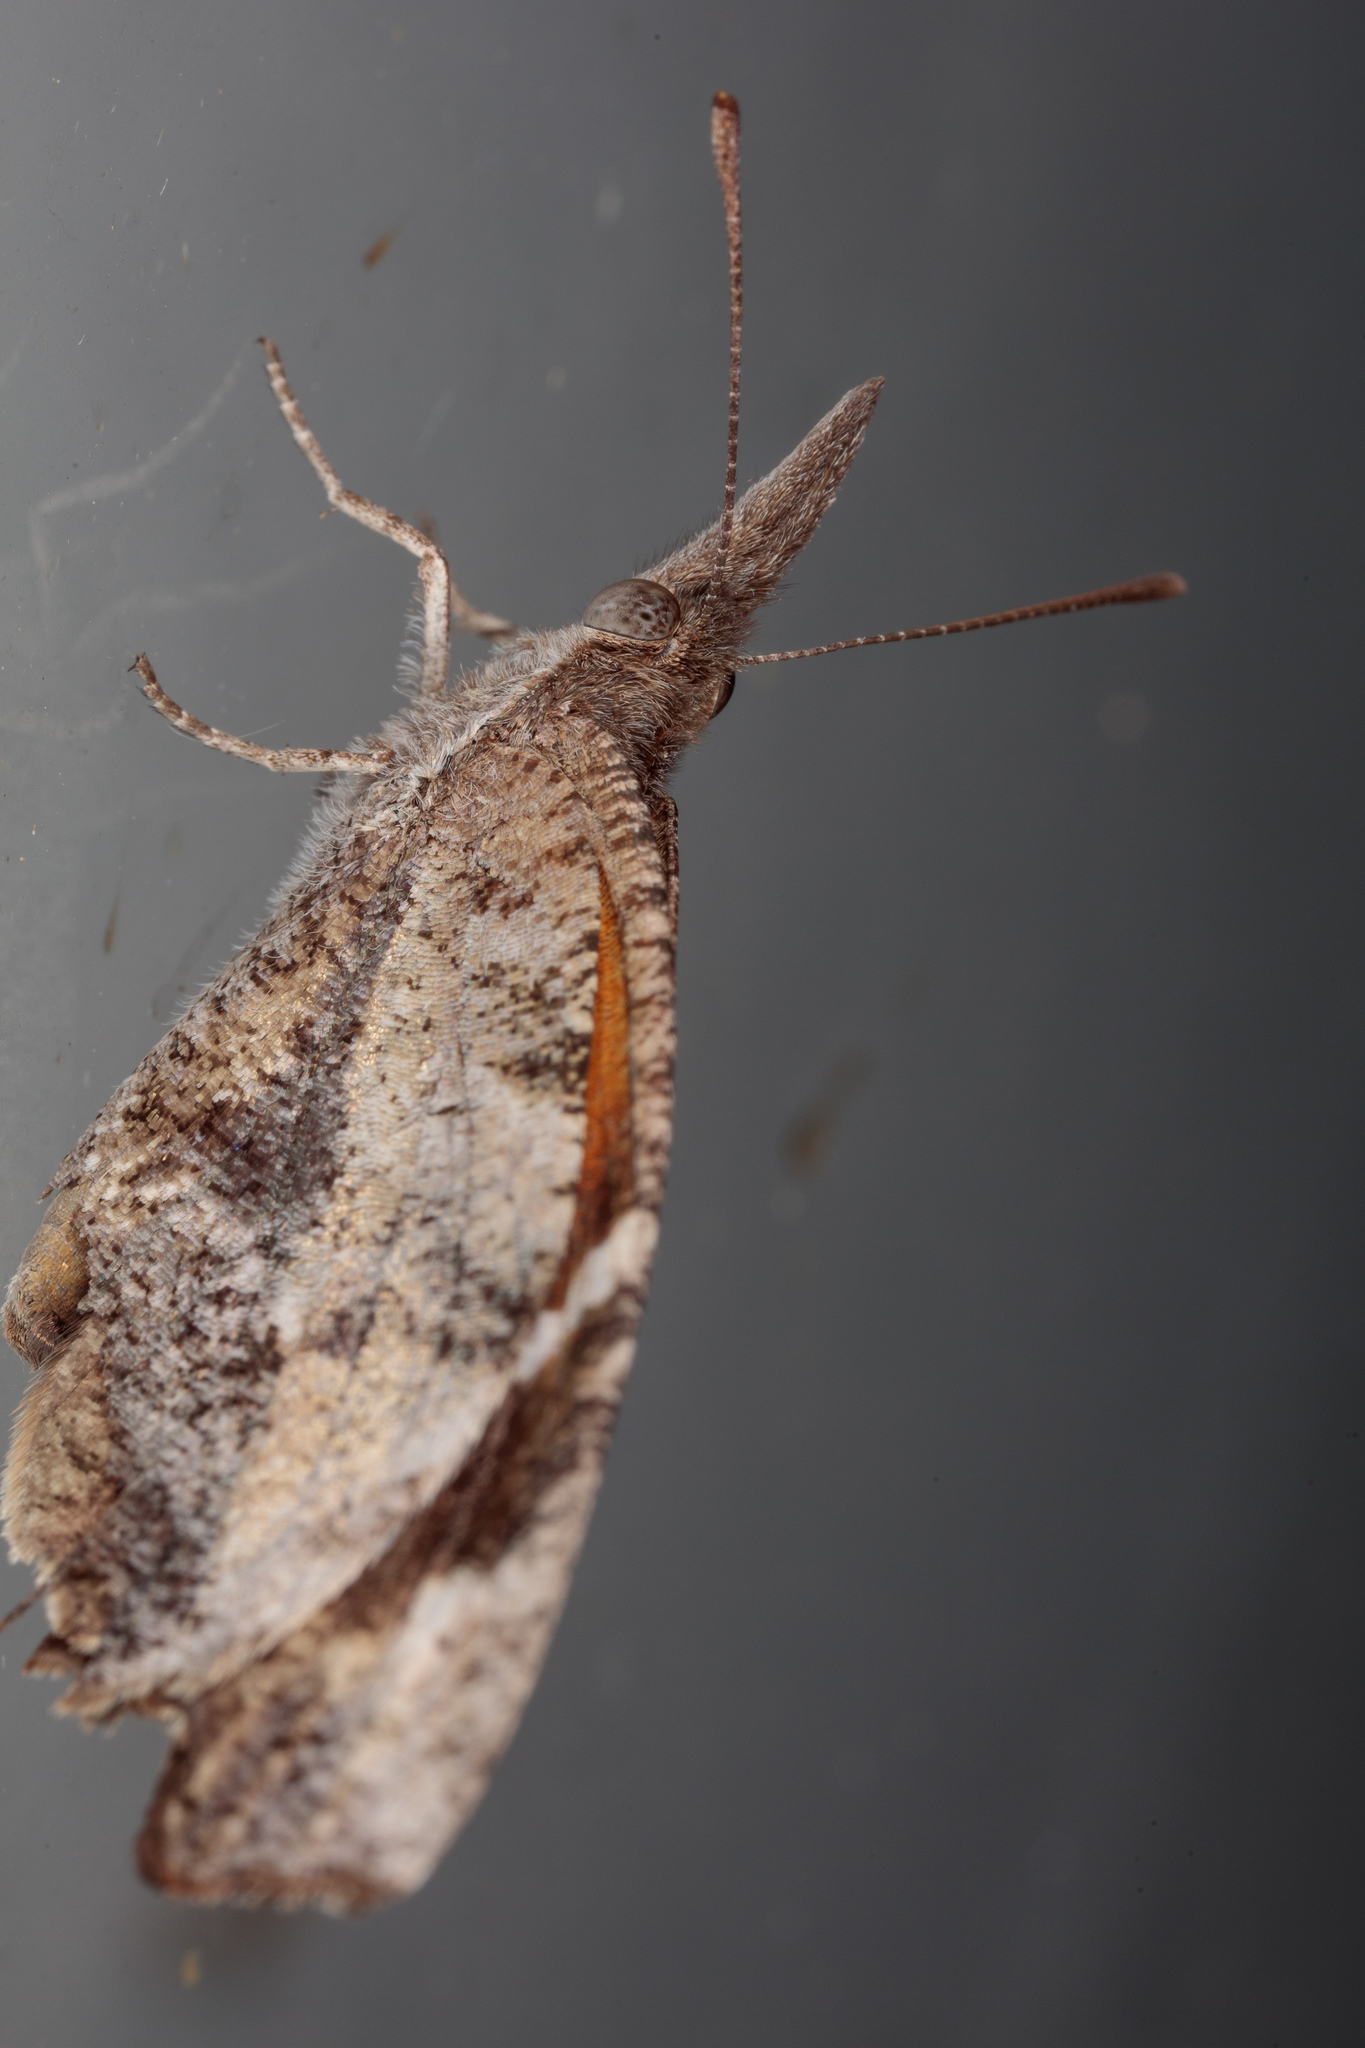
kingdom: Animalia
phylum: Arthropoda
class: Insecta
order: Lepidoptera
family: Nymphalidae
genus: Libytheana
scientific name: Libytheana carinenta
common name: American snout
